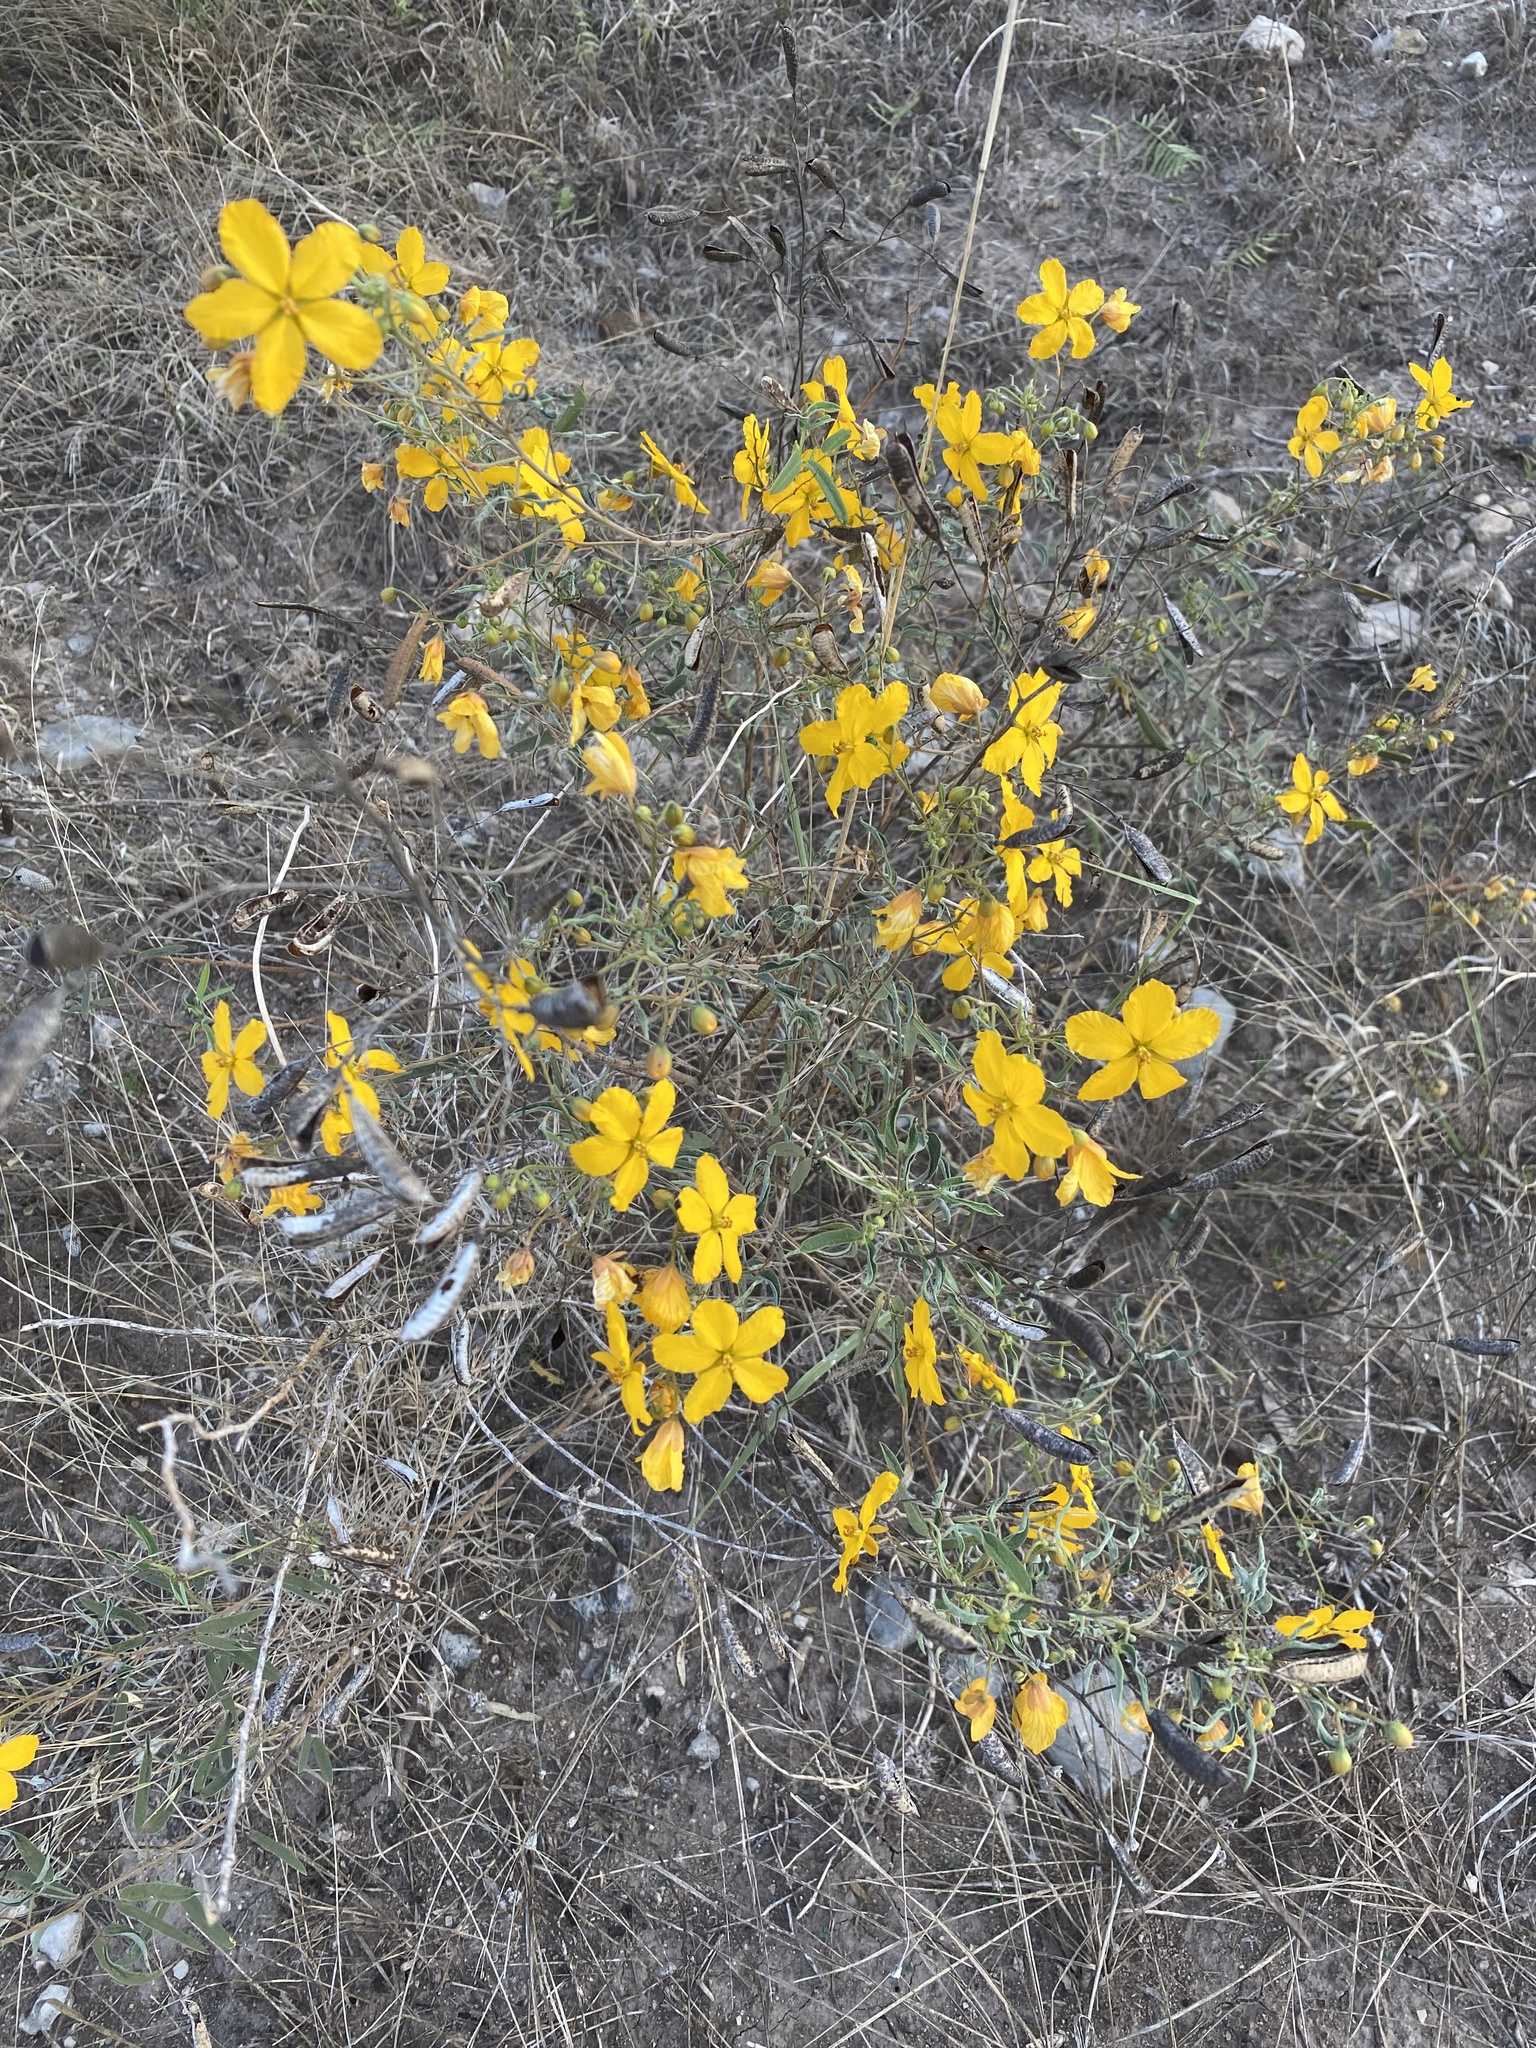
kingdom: Plantae
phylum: Tracheophyta
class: Magnoliopsida
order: Fabales
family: Fabaceae
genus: Senna
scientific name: Senna roemeriana
